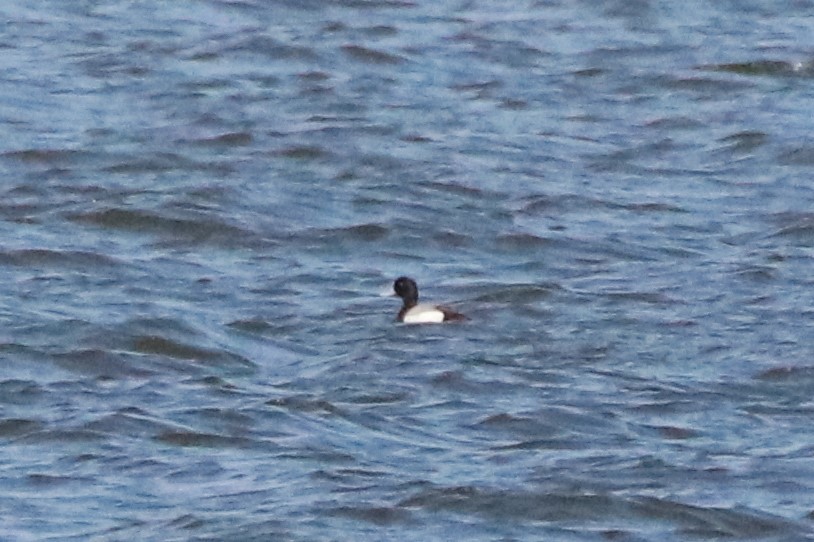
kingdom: Animalia
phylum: Chordata
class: Aves
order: Anseriformes
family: Anatidae
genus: Aythya
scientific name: Aythya marila
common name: Greater scaup
